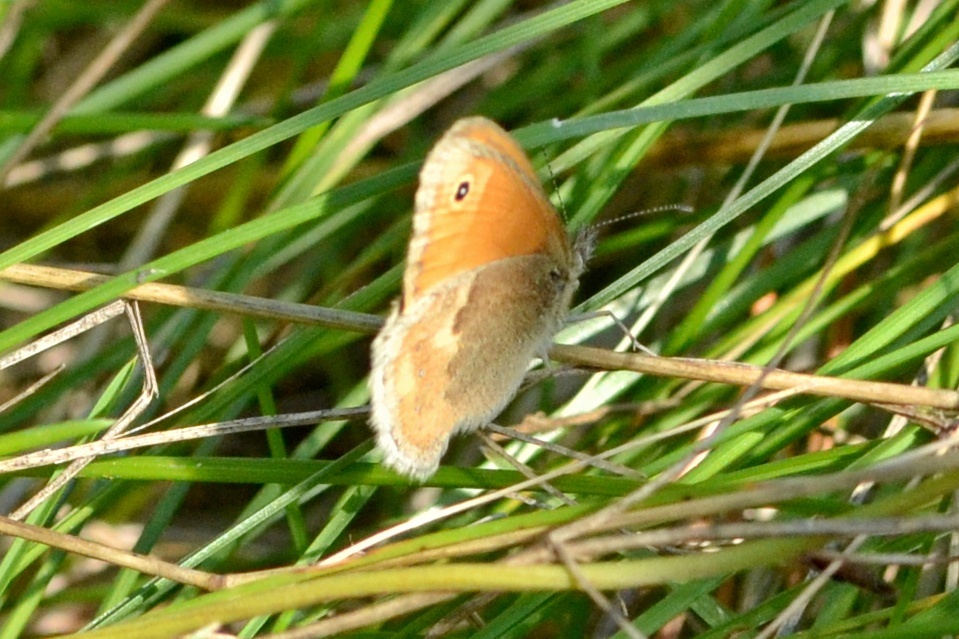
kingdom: Animalia
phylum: Arthropoda
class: Insecta
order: Lepidoptera
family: Nymphalidae
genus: Coenonympha
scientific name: Coenonympha pamphilus
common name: Small heath
